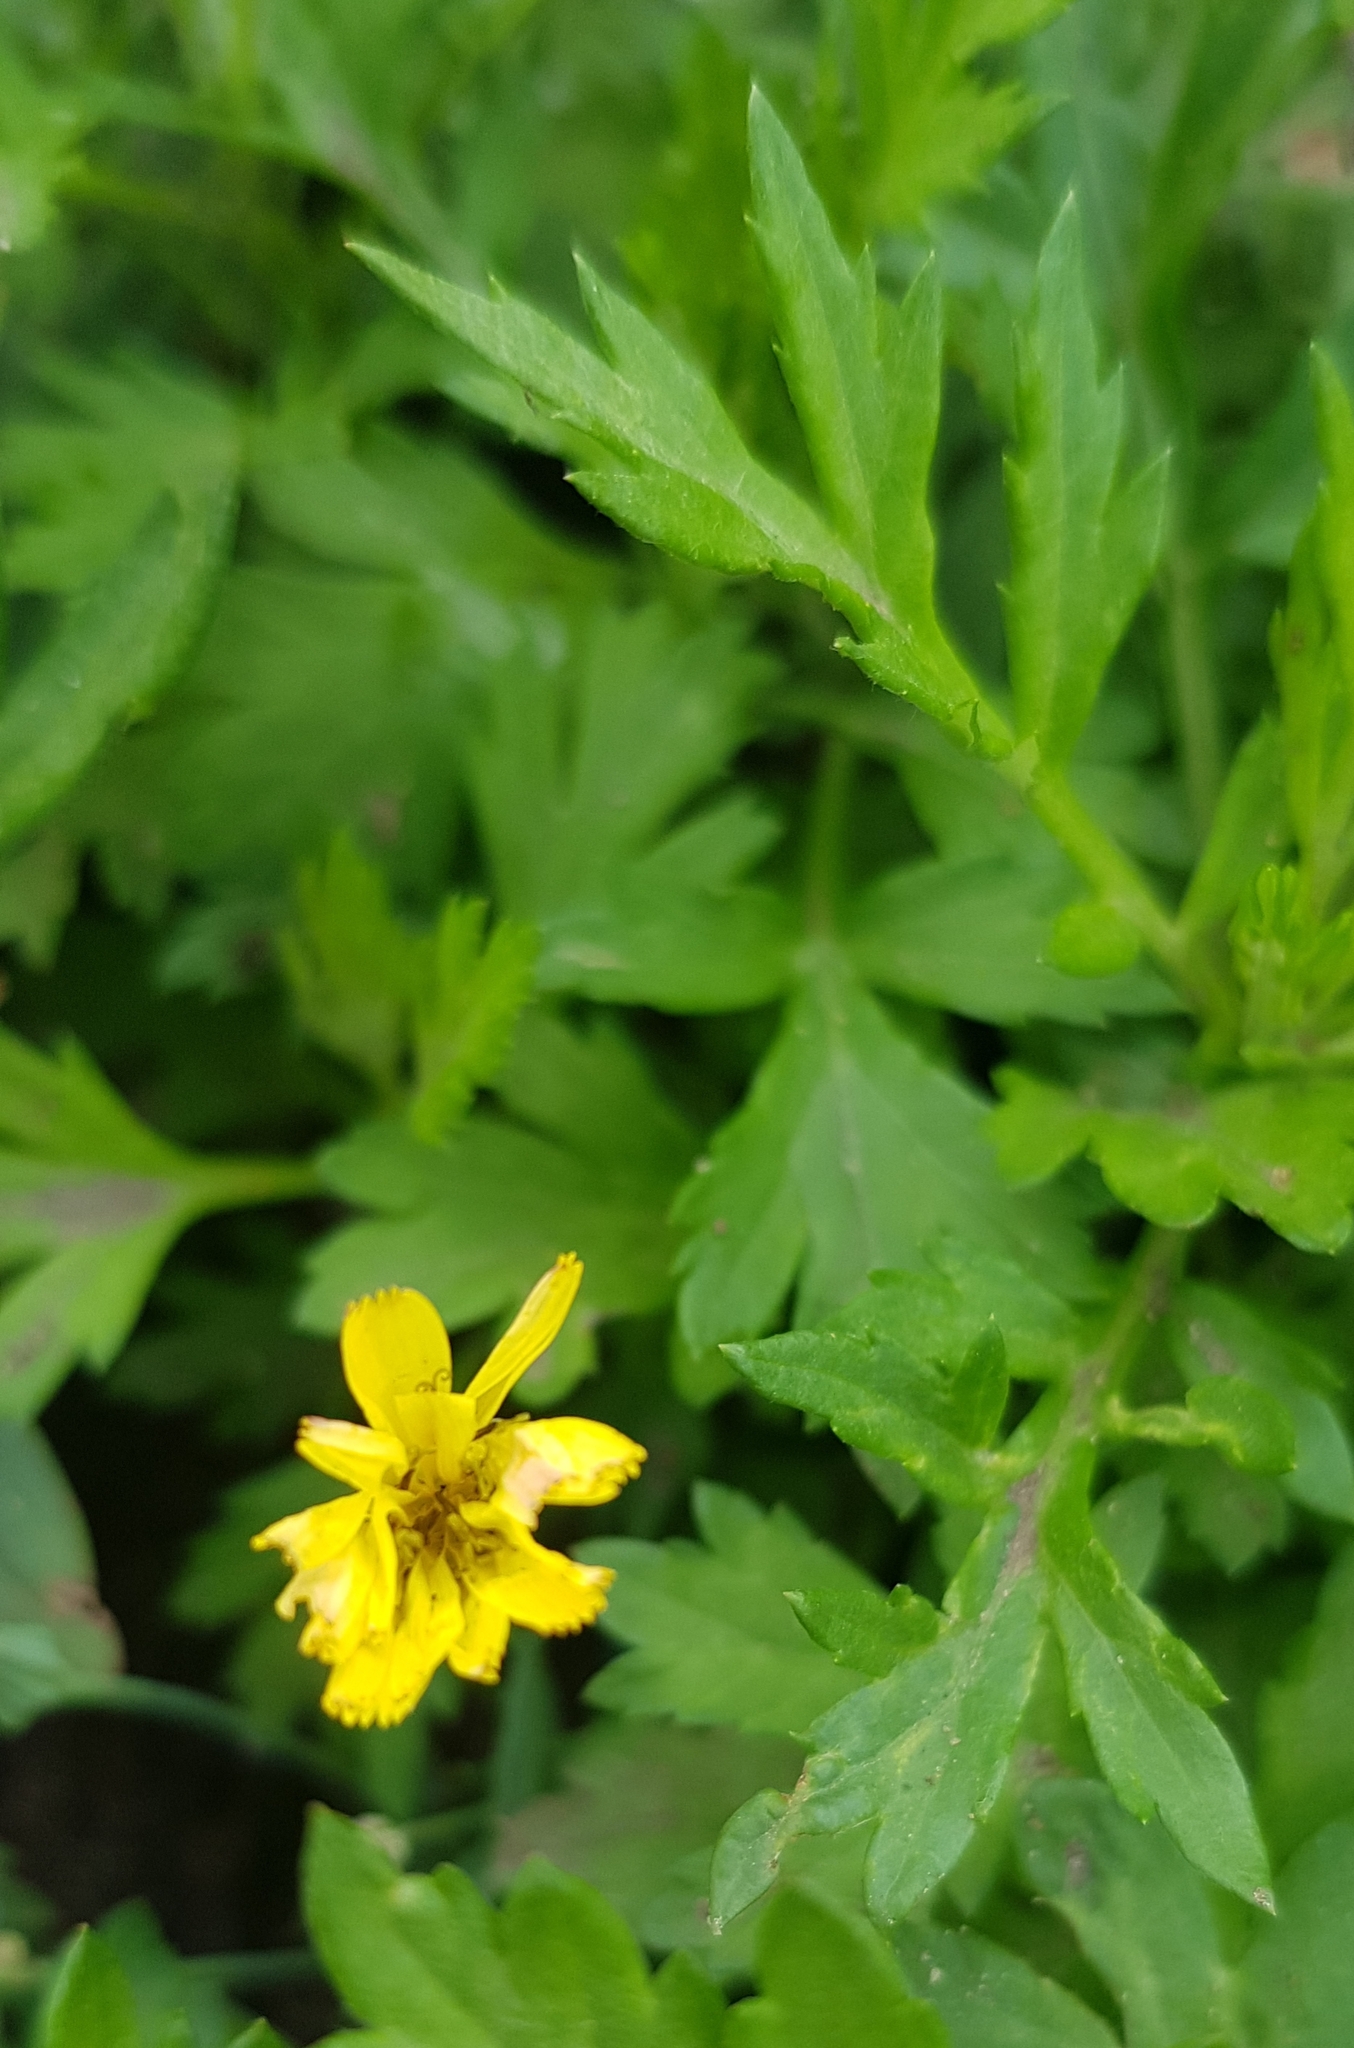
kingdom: Plantae
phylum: Tracheophyta
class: Magnoliopsida
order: Rosales
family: Rosaceae
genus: Geum
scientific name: Geum aleppicum
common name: Yellow avens
